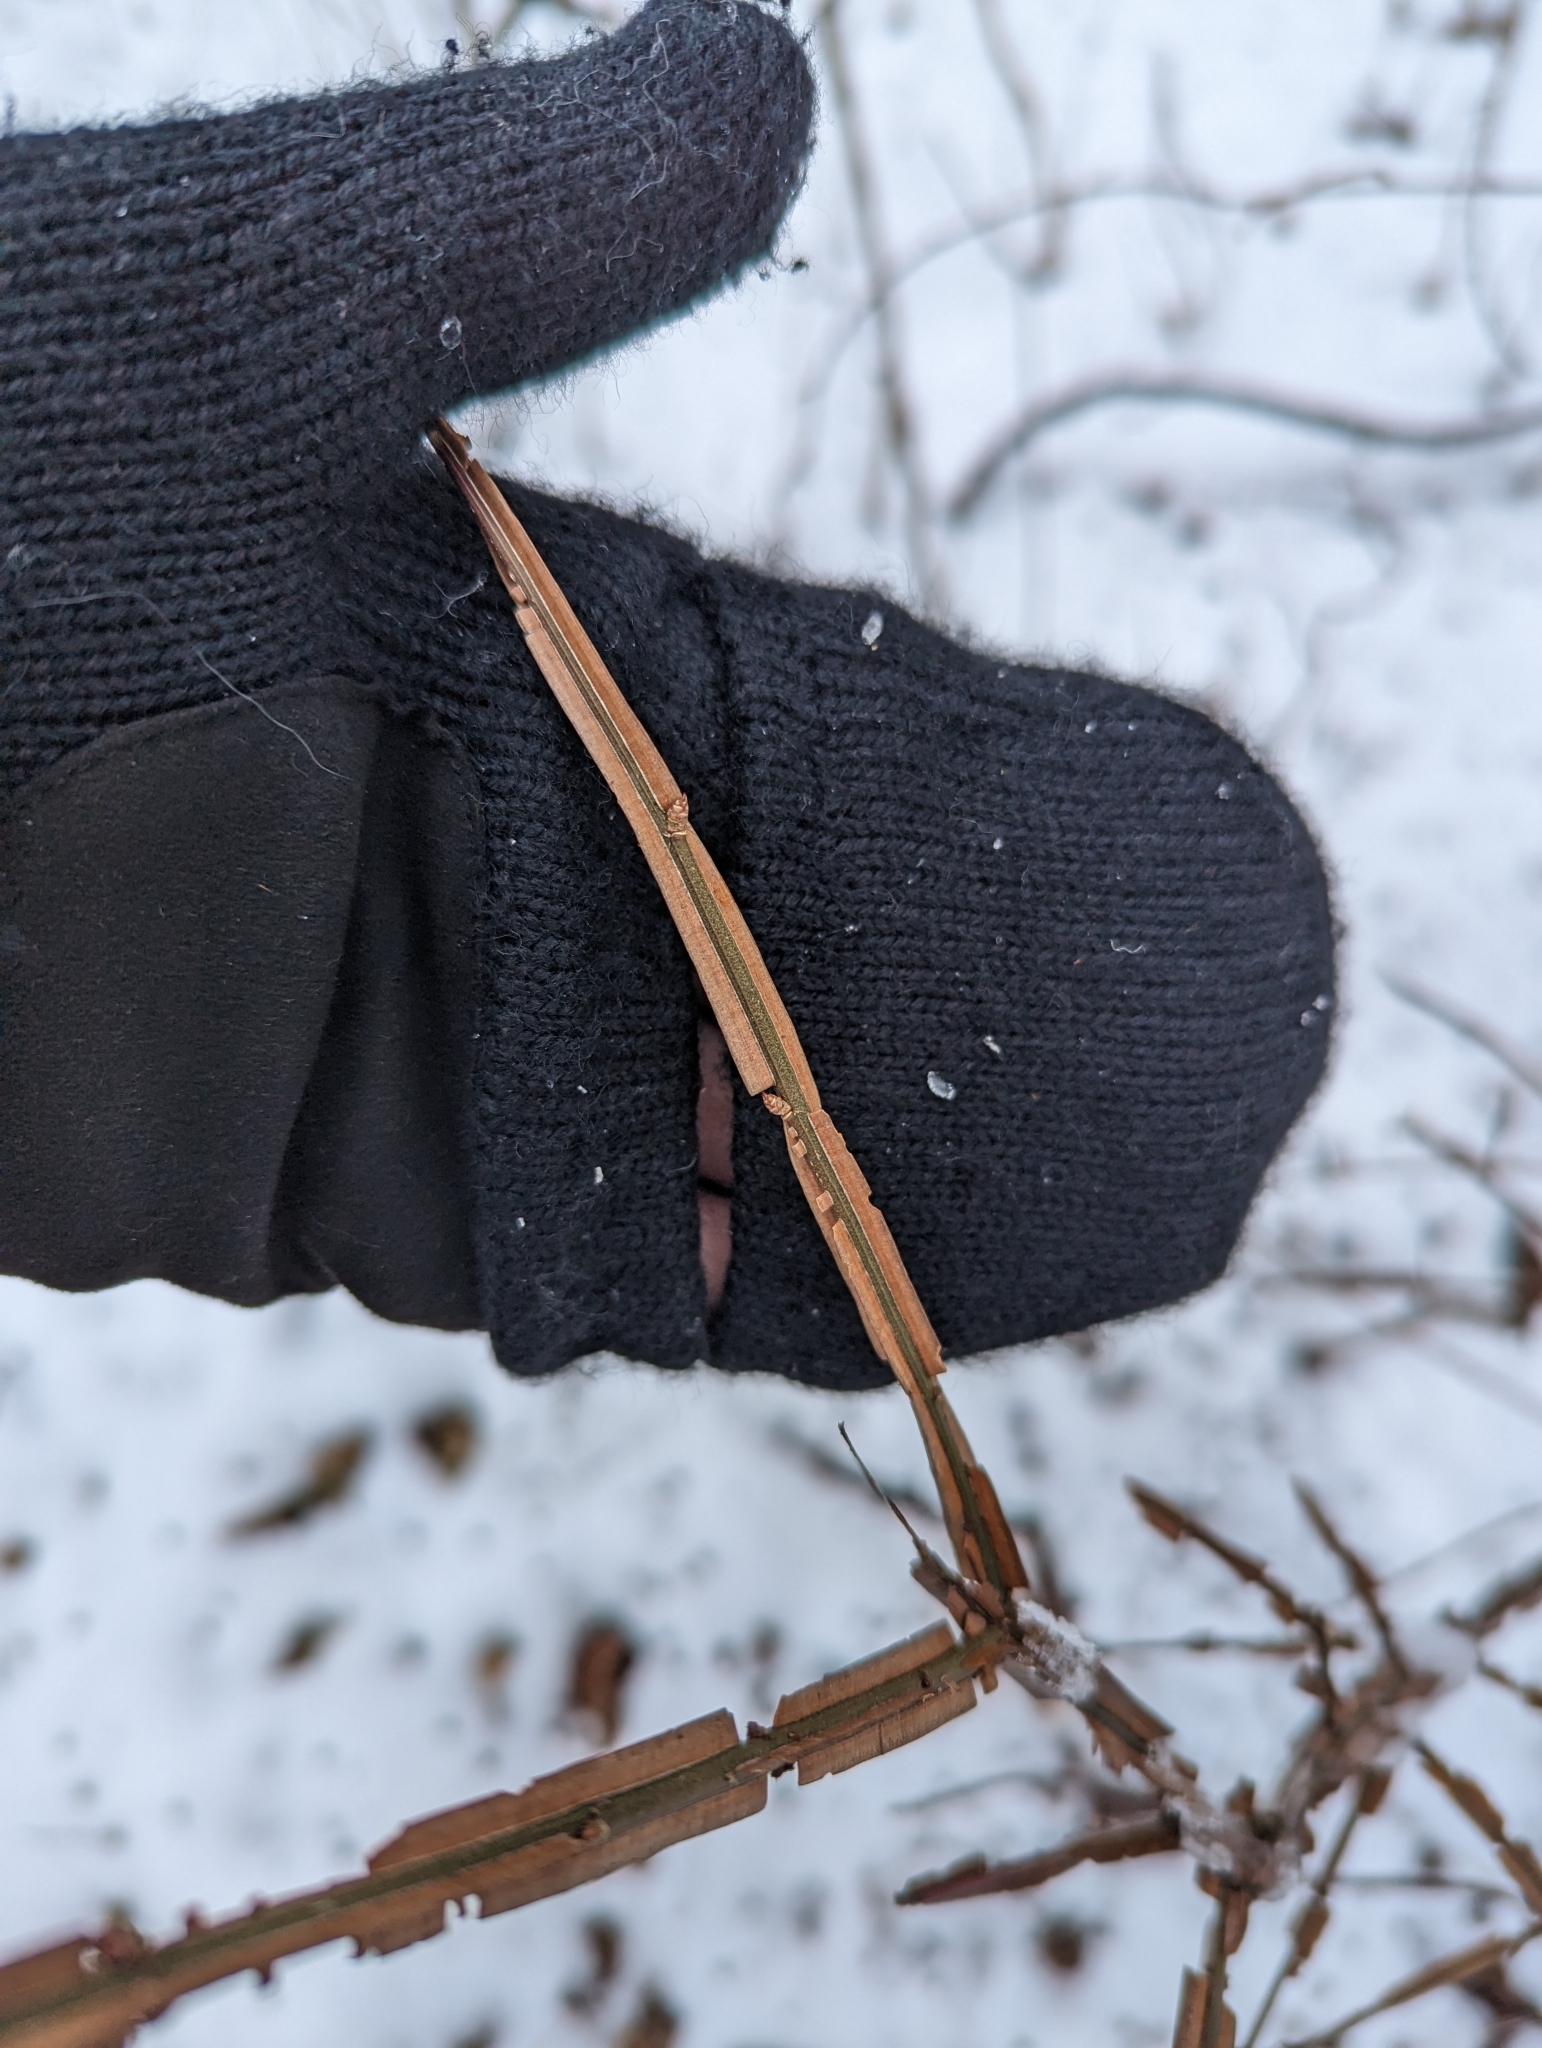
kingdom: Plantae
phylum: Tracheophyta
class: Magnoliopsida
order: Celastrales
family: Celastraceae
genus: Euonymus
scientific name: Euonymus alatus
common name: Winged euonymus
